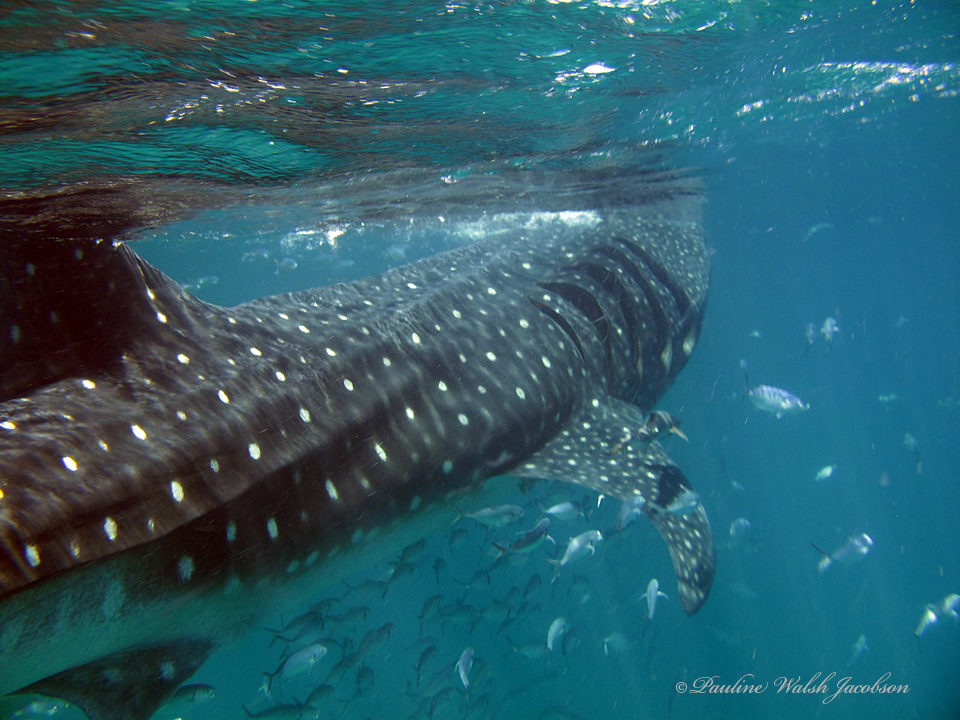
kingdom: Animalia
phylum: Chordata
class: Elasmobranchii
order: Orectolobiformes
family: Rhincodontidae
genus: Rhincodon
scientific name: Rhincodon typus
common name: Whale shark
